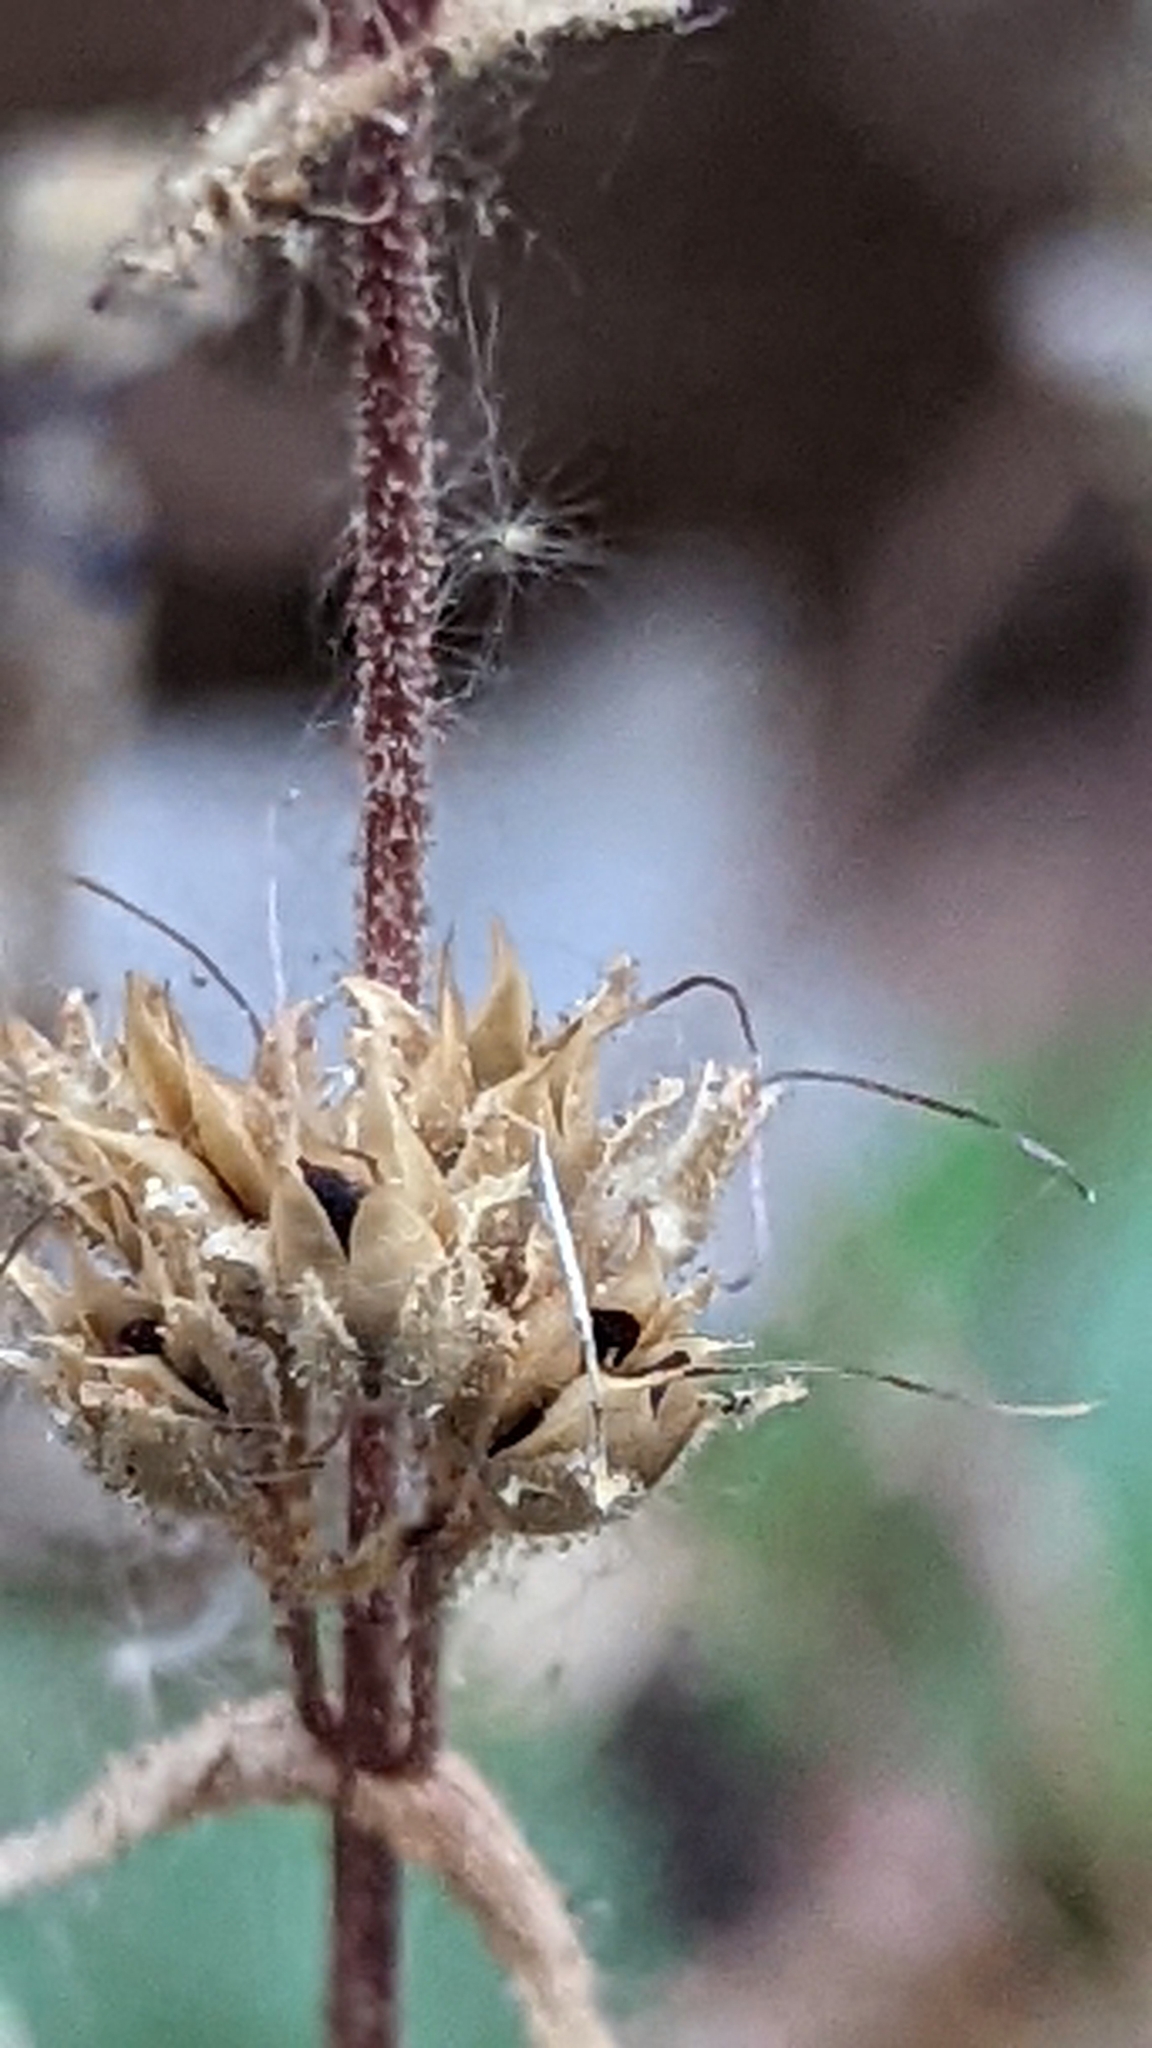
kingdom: Plantae
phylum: Tracheophyta
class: Magnoliopsida
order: Lamiales
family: Plantaginaceae
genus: Penstemon
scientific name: Penstemon humilis
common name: Low penstemon
